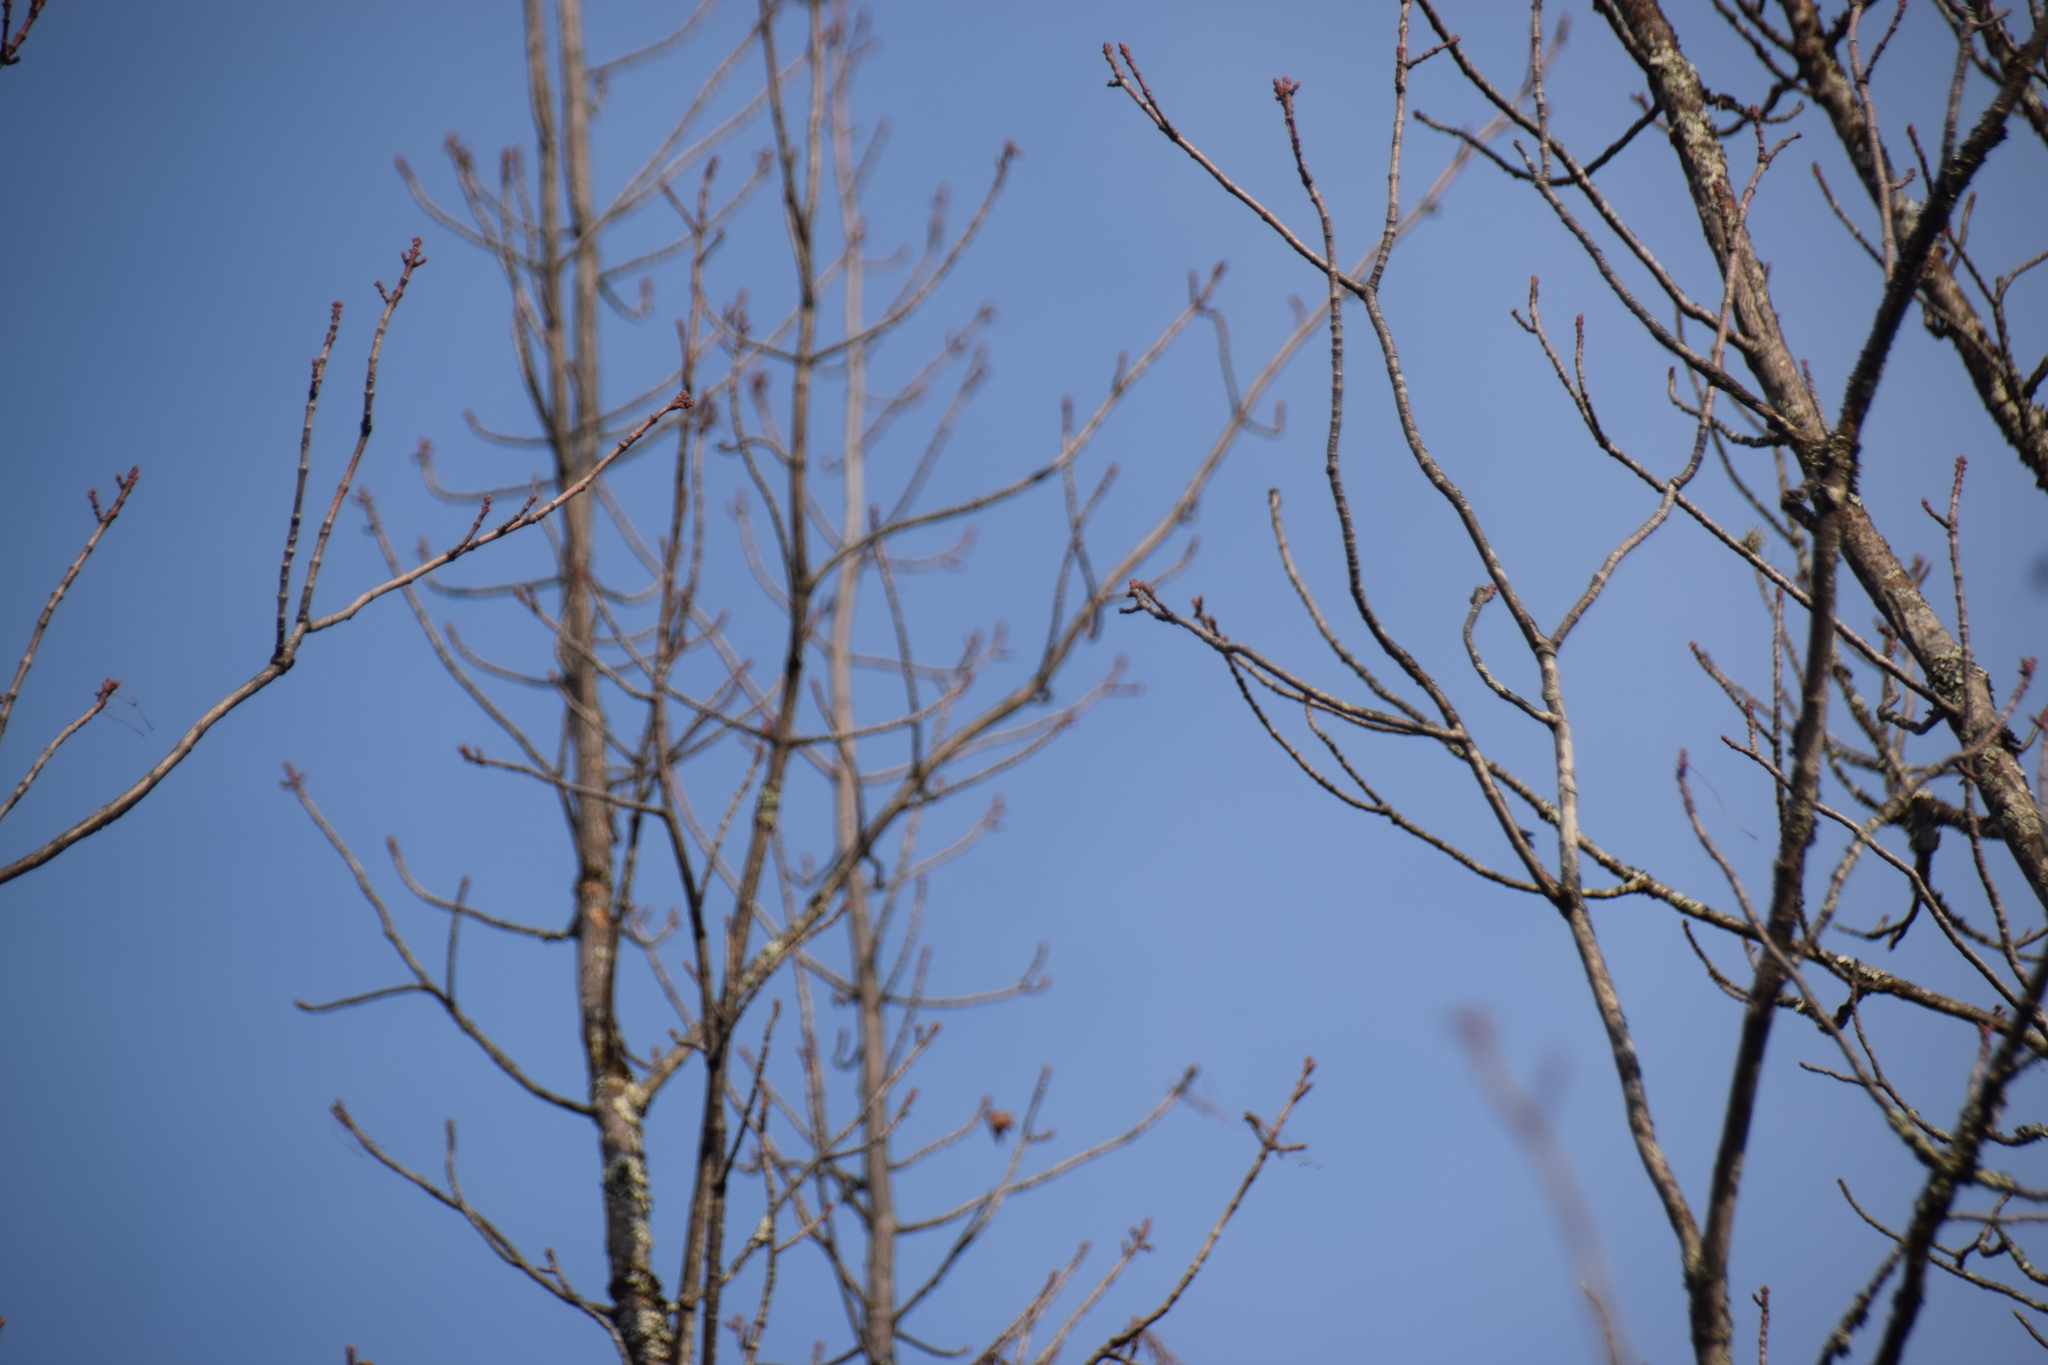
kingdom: Plantae
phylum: Tracheophyta
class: Magnoliopsida
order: Sapindales
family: Sapindaceae
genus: Acer
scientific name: Acer rubrum
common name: Red maple
